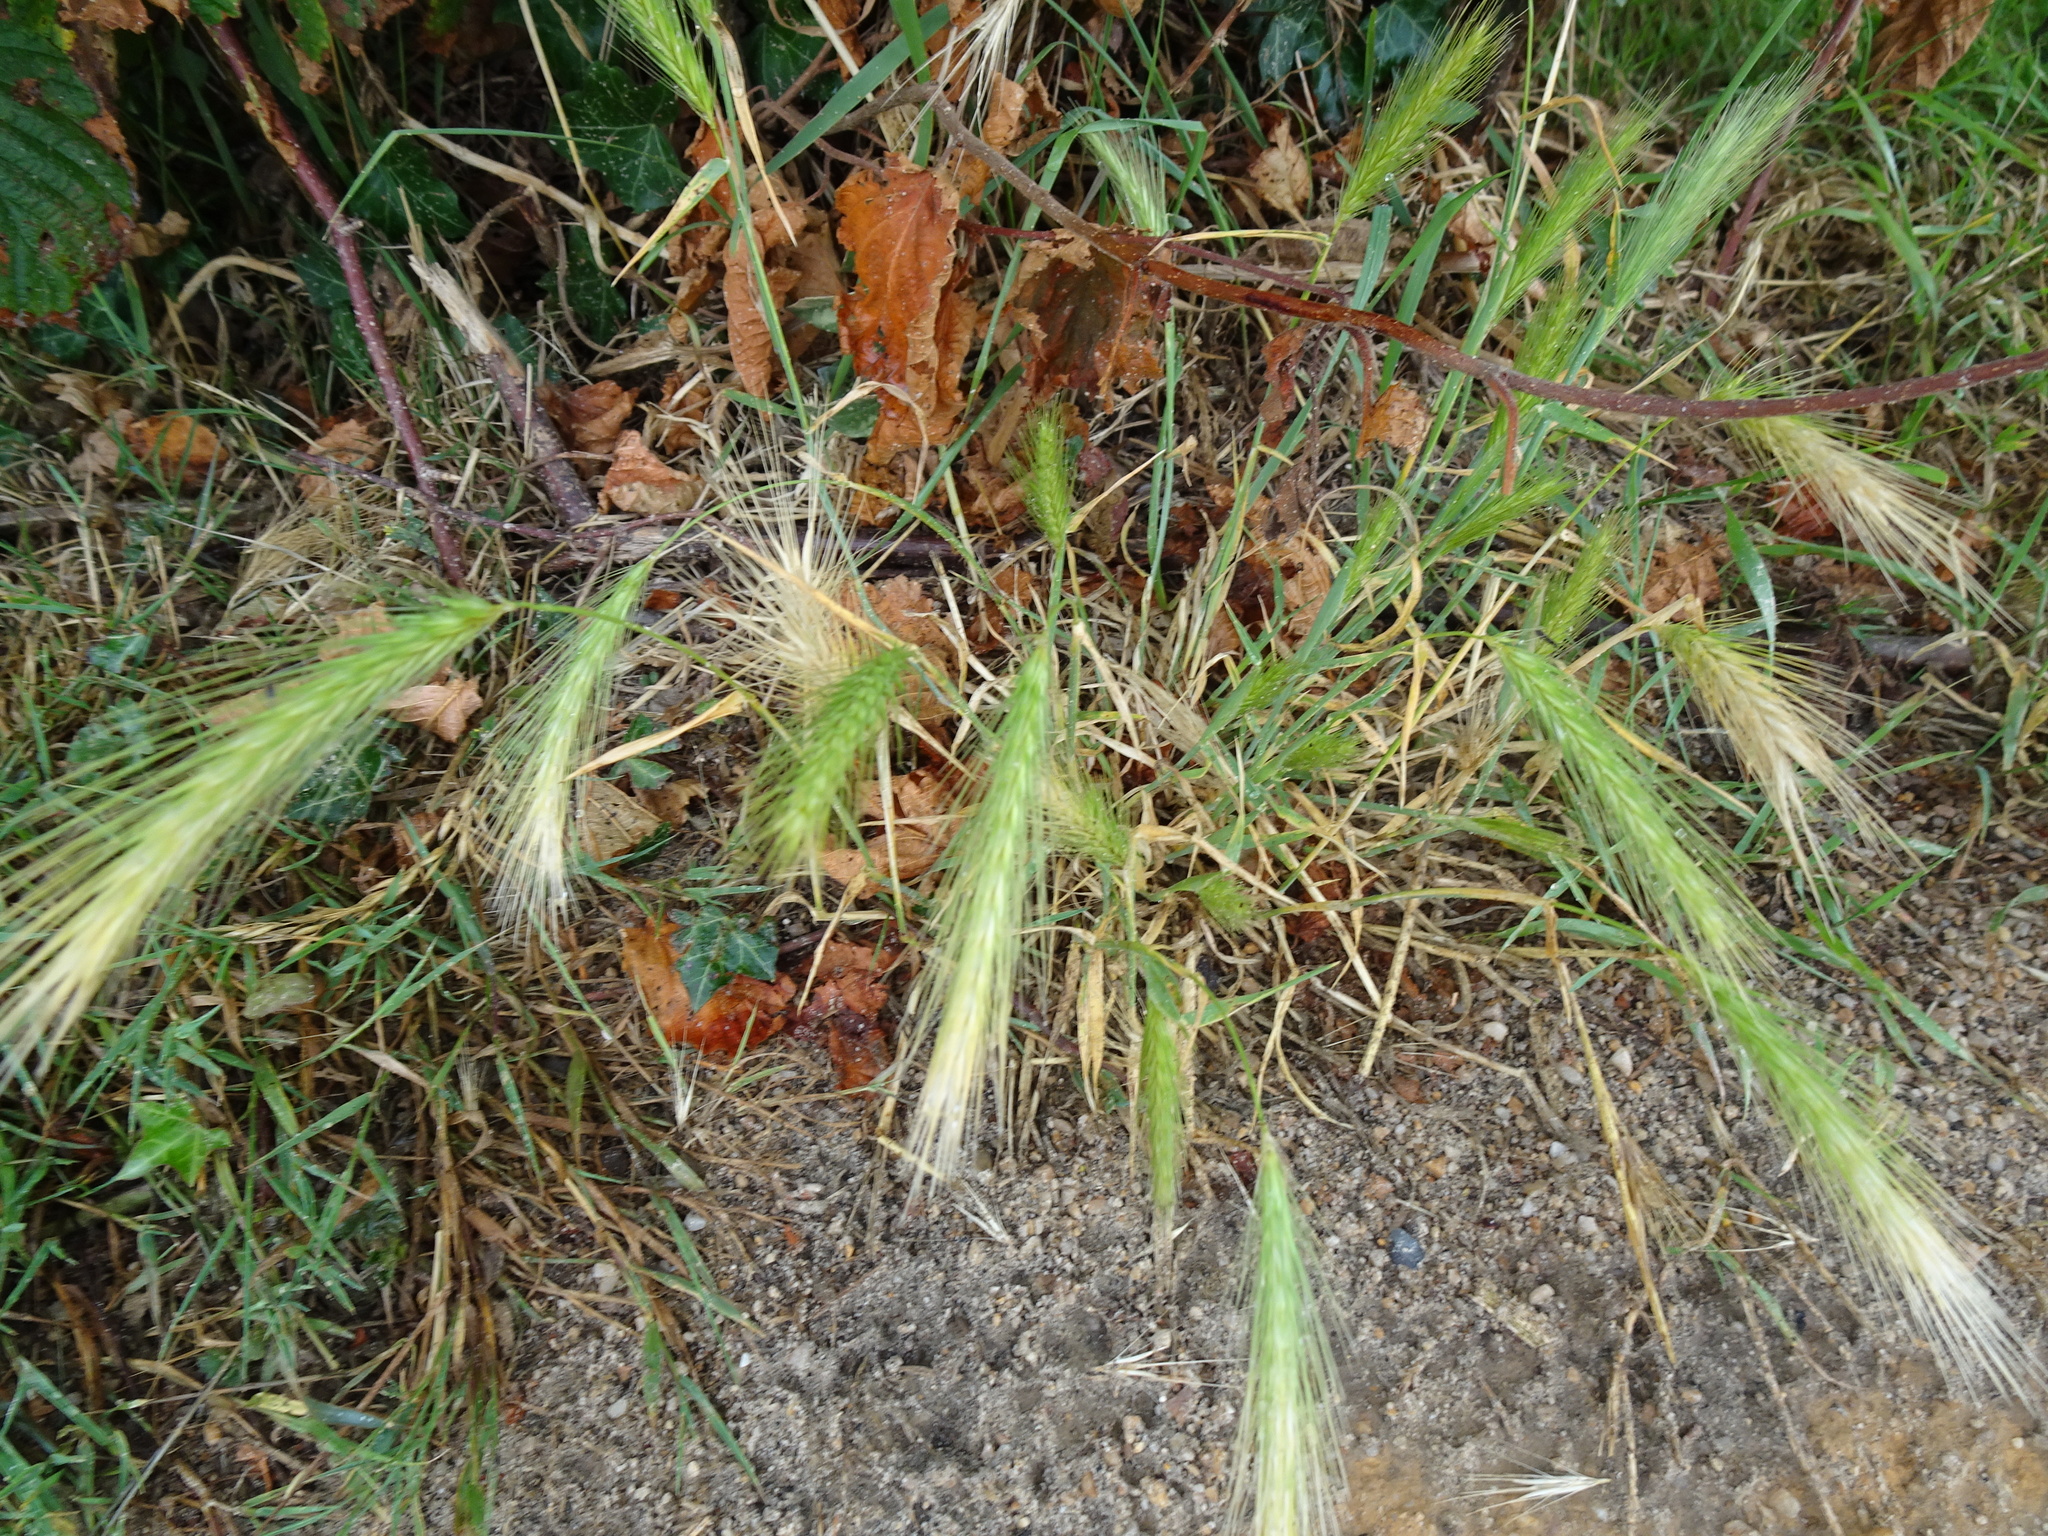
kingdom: Plantae
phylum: Tracheophyta
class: Liliopsida
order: Poales
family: Poaceae
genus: Hordeum
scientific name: Hordeum murinum
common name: Wall barley
